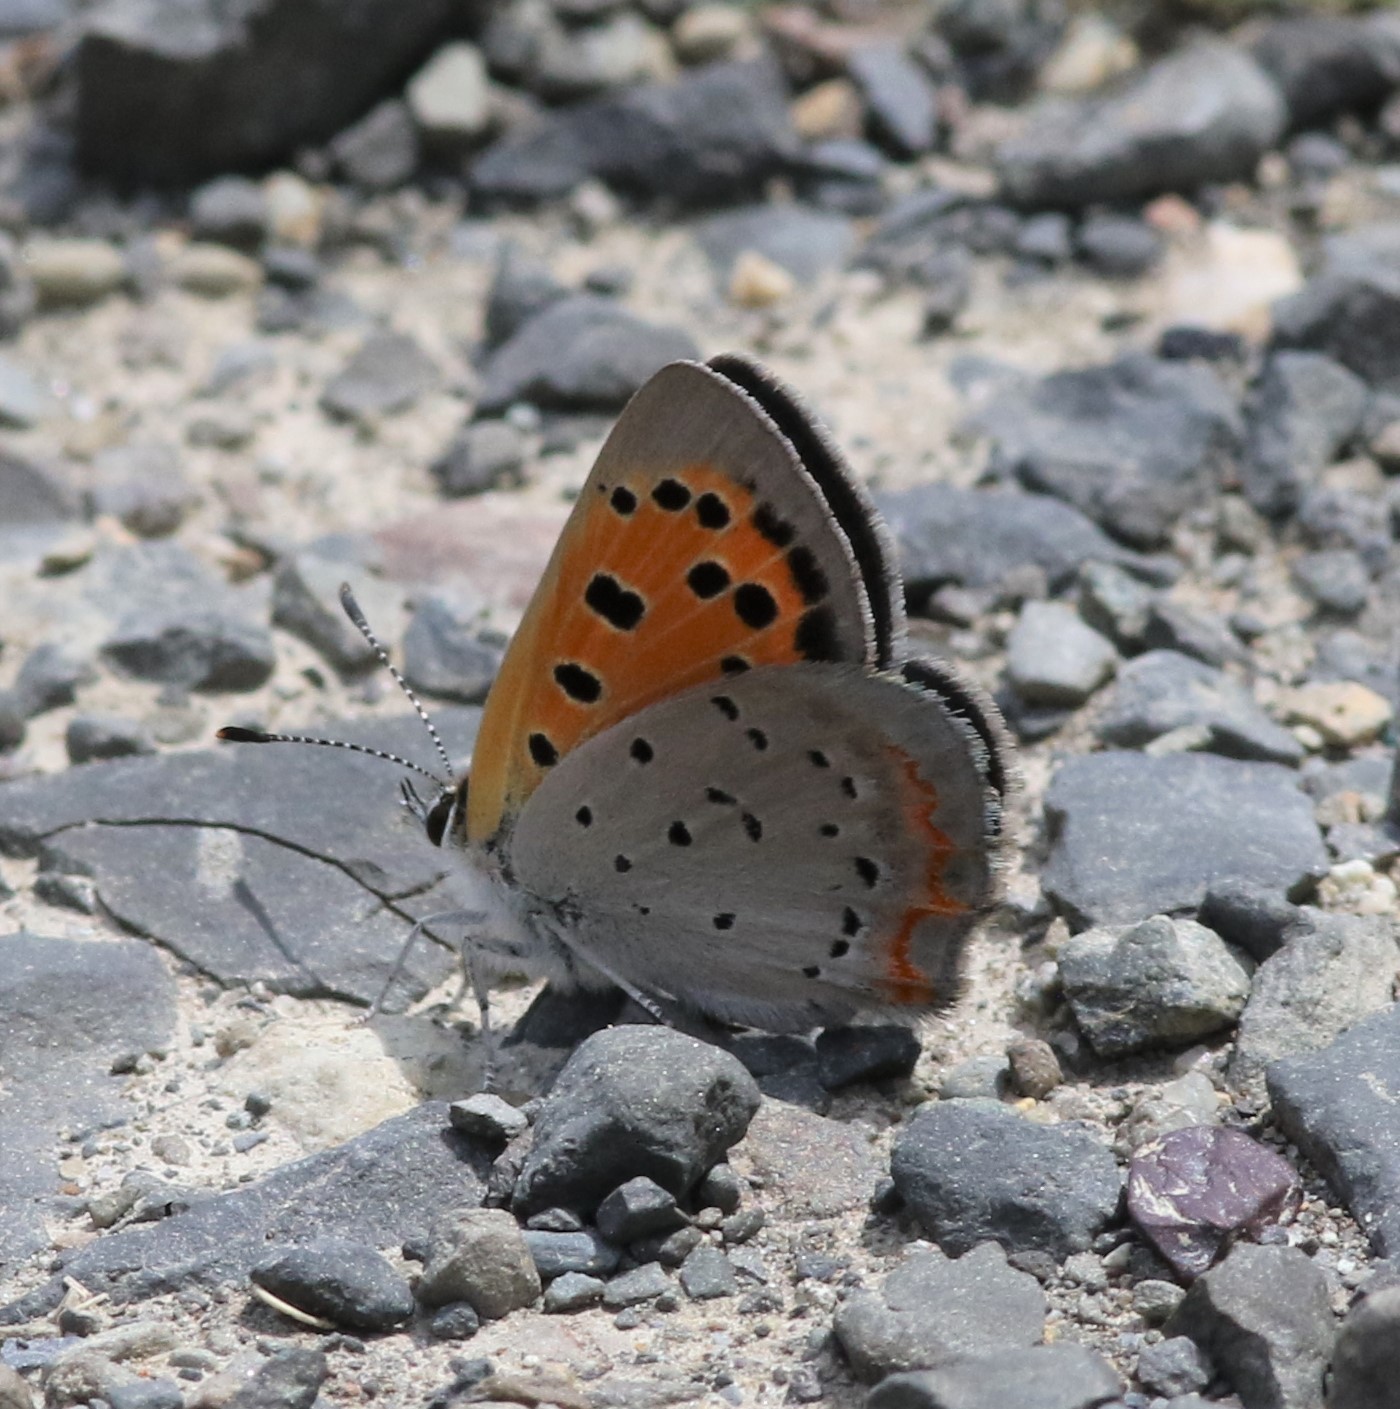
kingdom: Animalia
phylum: Arthropoda
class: Insecta
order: Lepidoptera
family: Lycaenidae
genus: Lycaena
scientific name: Lycaena hypophlaeas
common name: American copper
